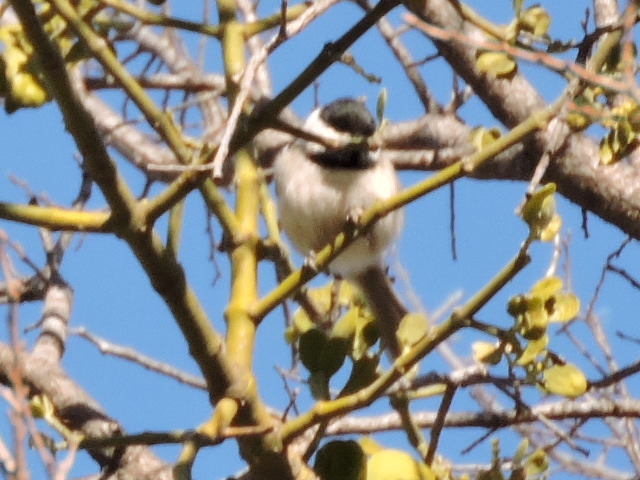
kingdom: Animalia
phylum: Chordata
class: Aves
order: Passeriformes
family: Paridae
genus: Poecile
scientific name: Poecile carolinensis
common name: Carolina chickadee
